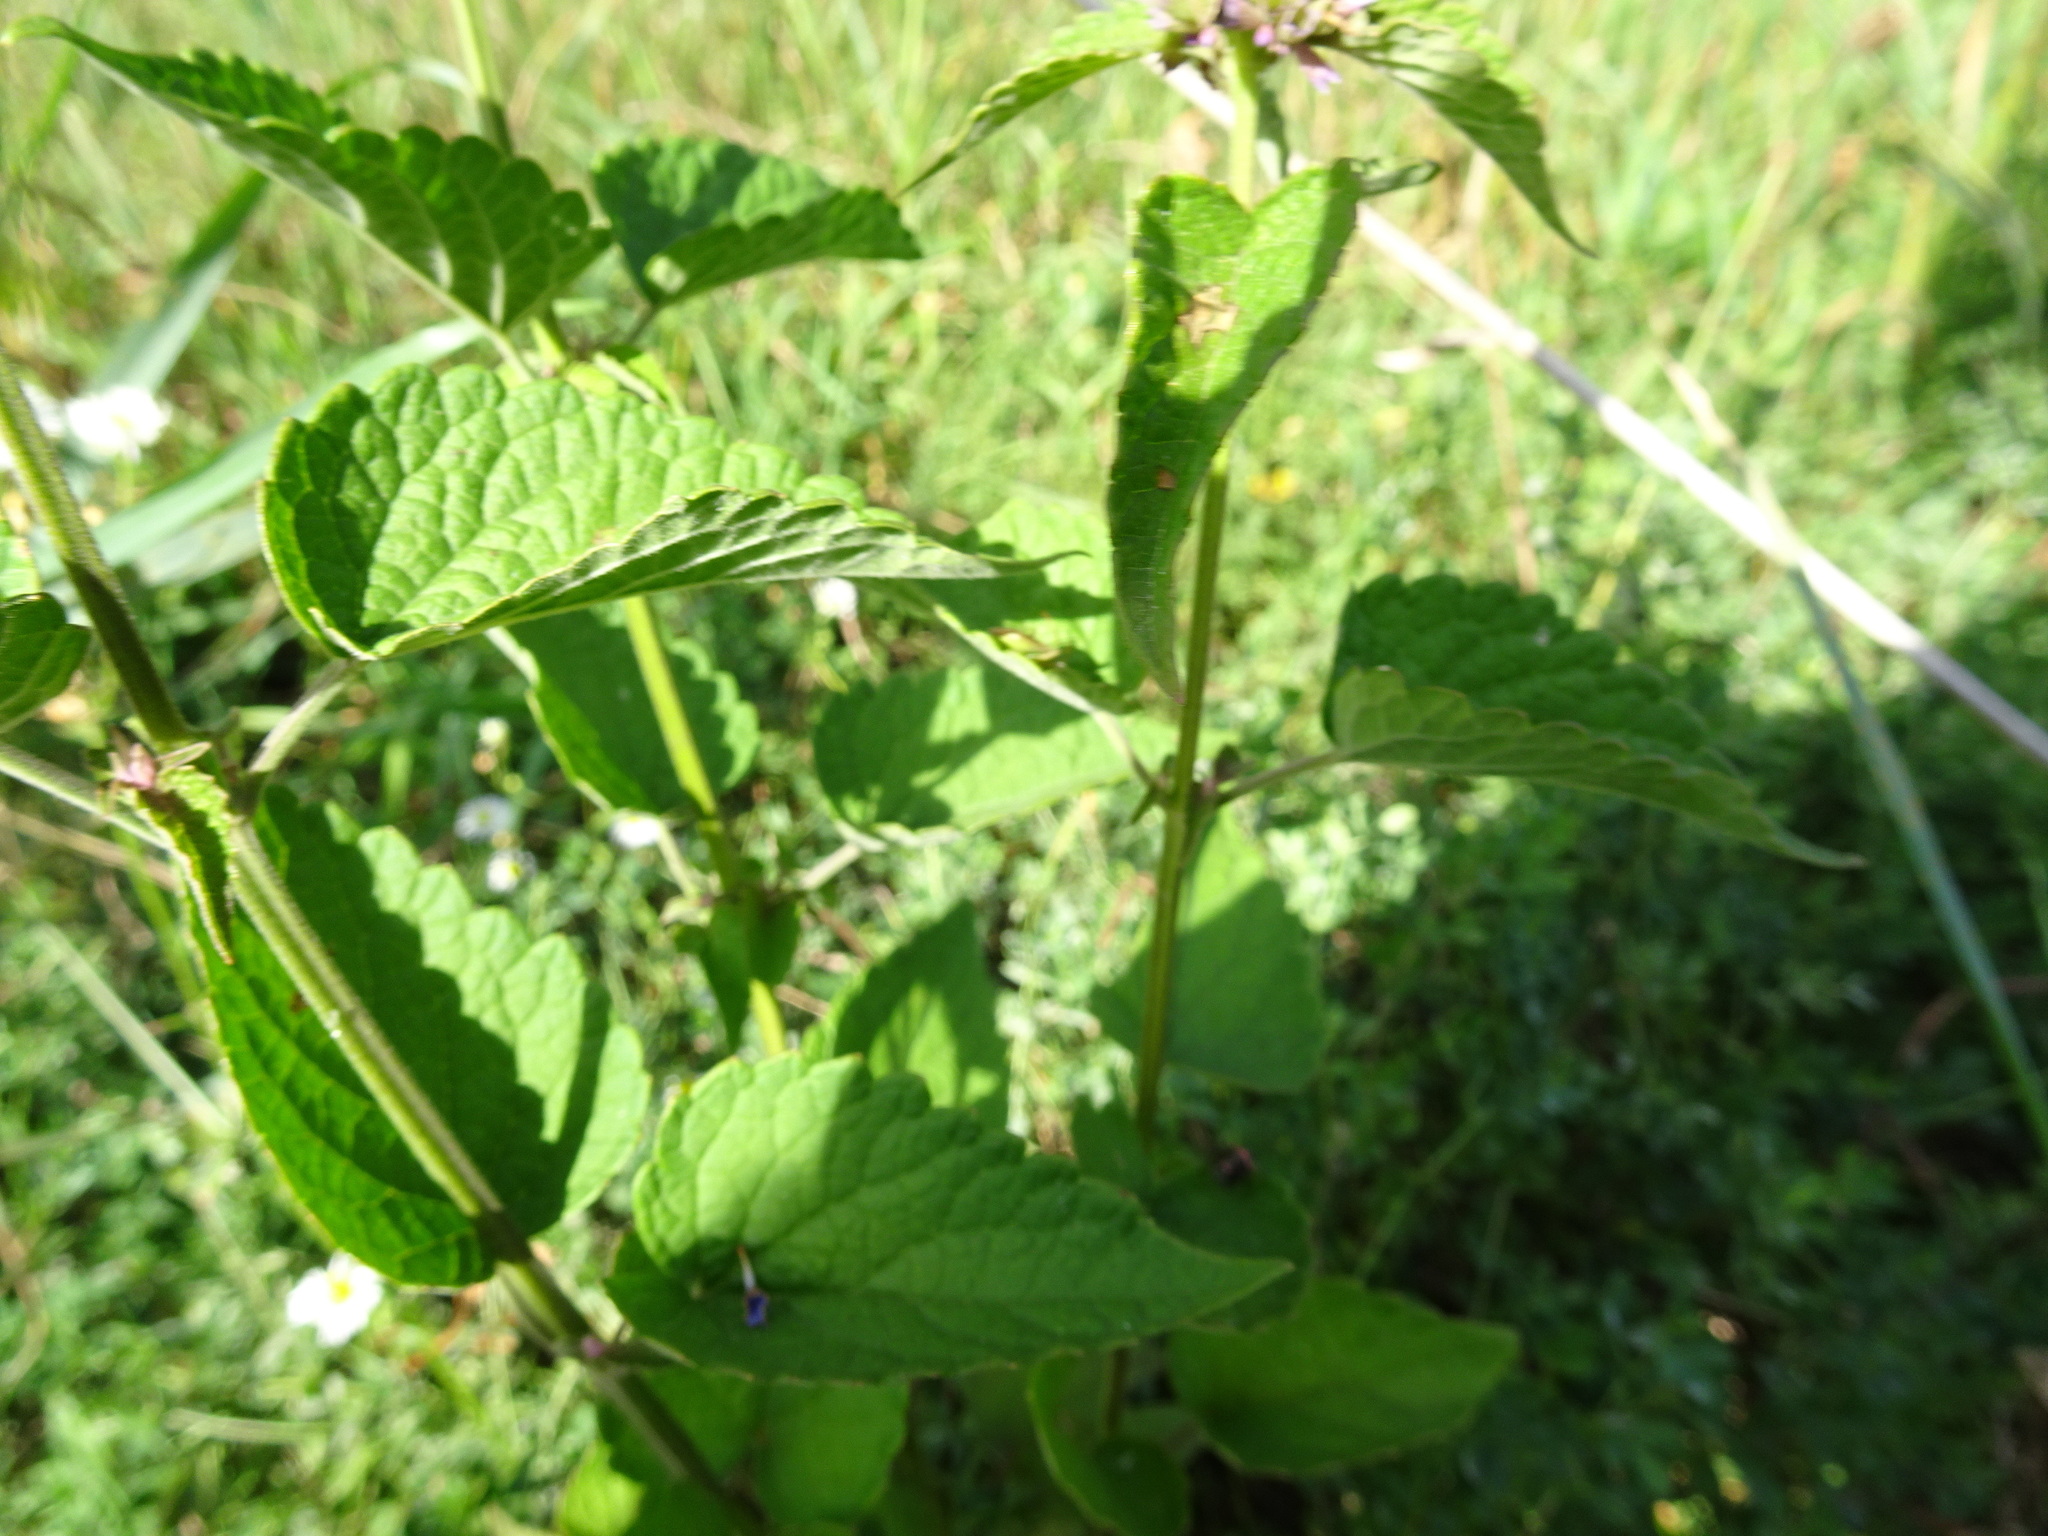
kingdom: Plantae
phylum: Tracheophyta
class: Magnoliopsida
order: Lamiales
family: Lamiaceae
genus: Agastache
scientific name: Agastache foeniculum
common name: Anise hyssop
